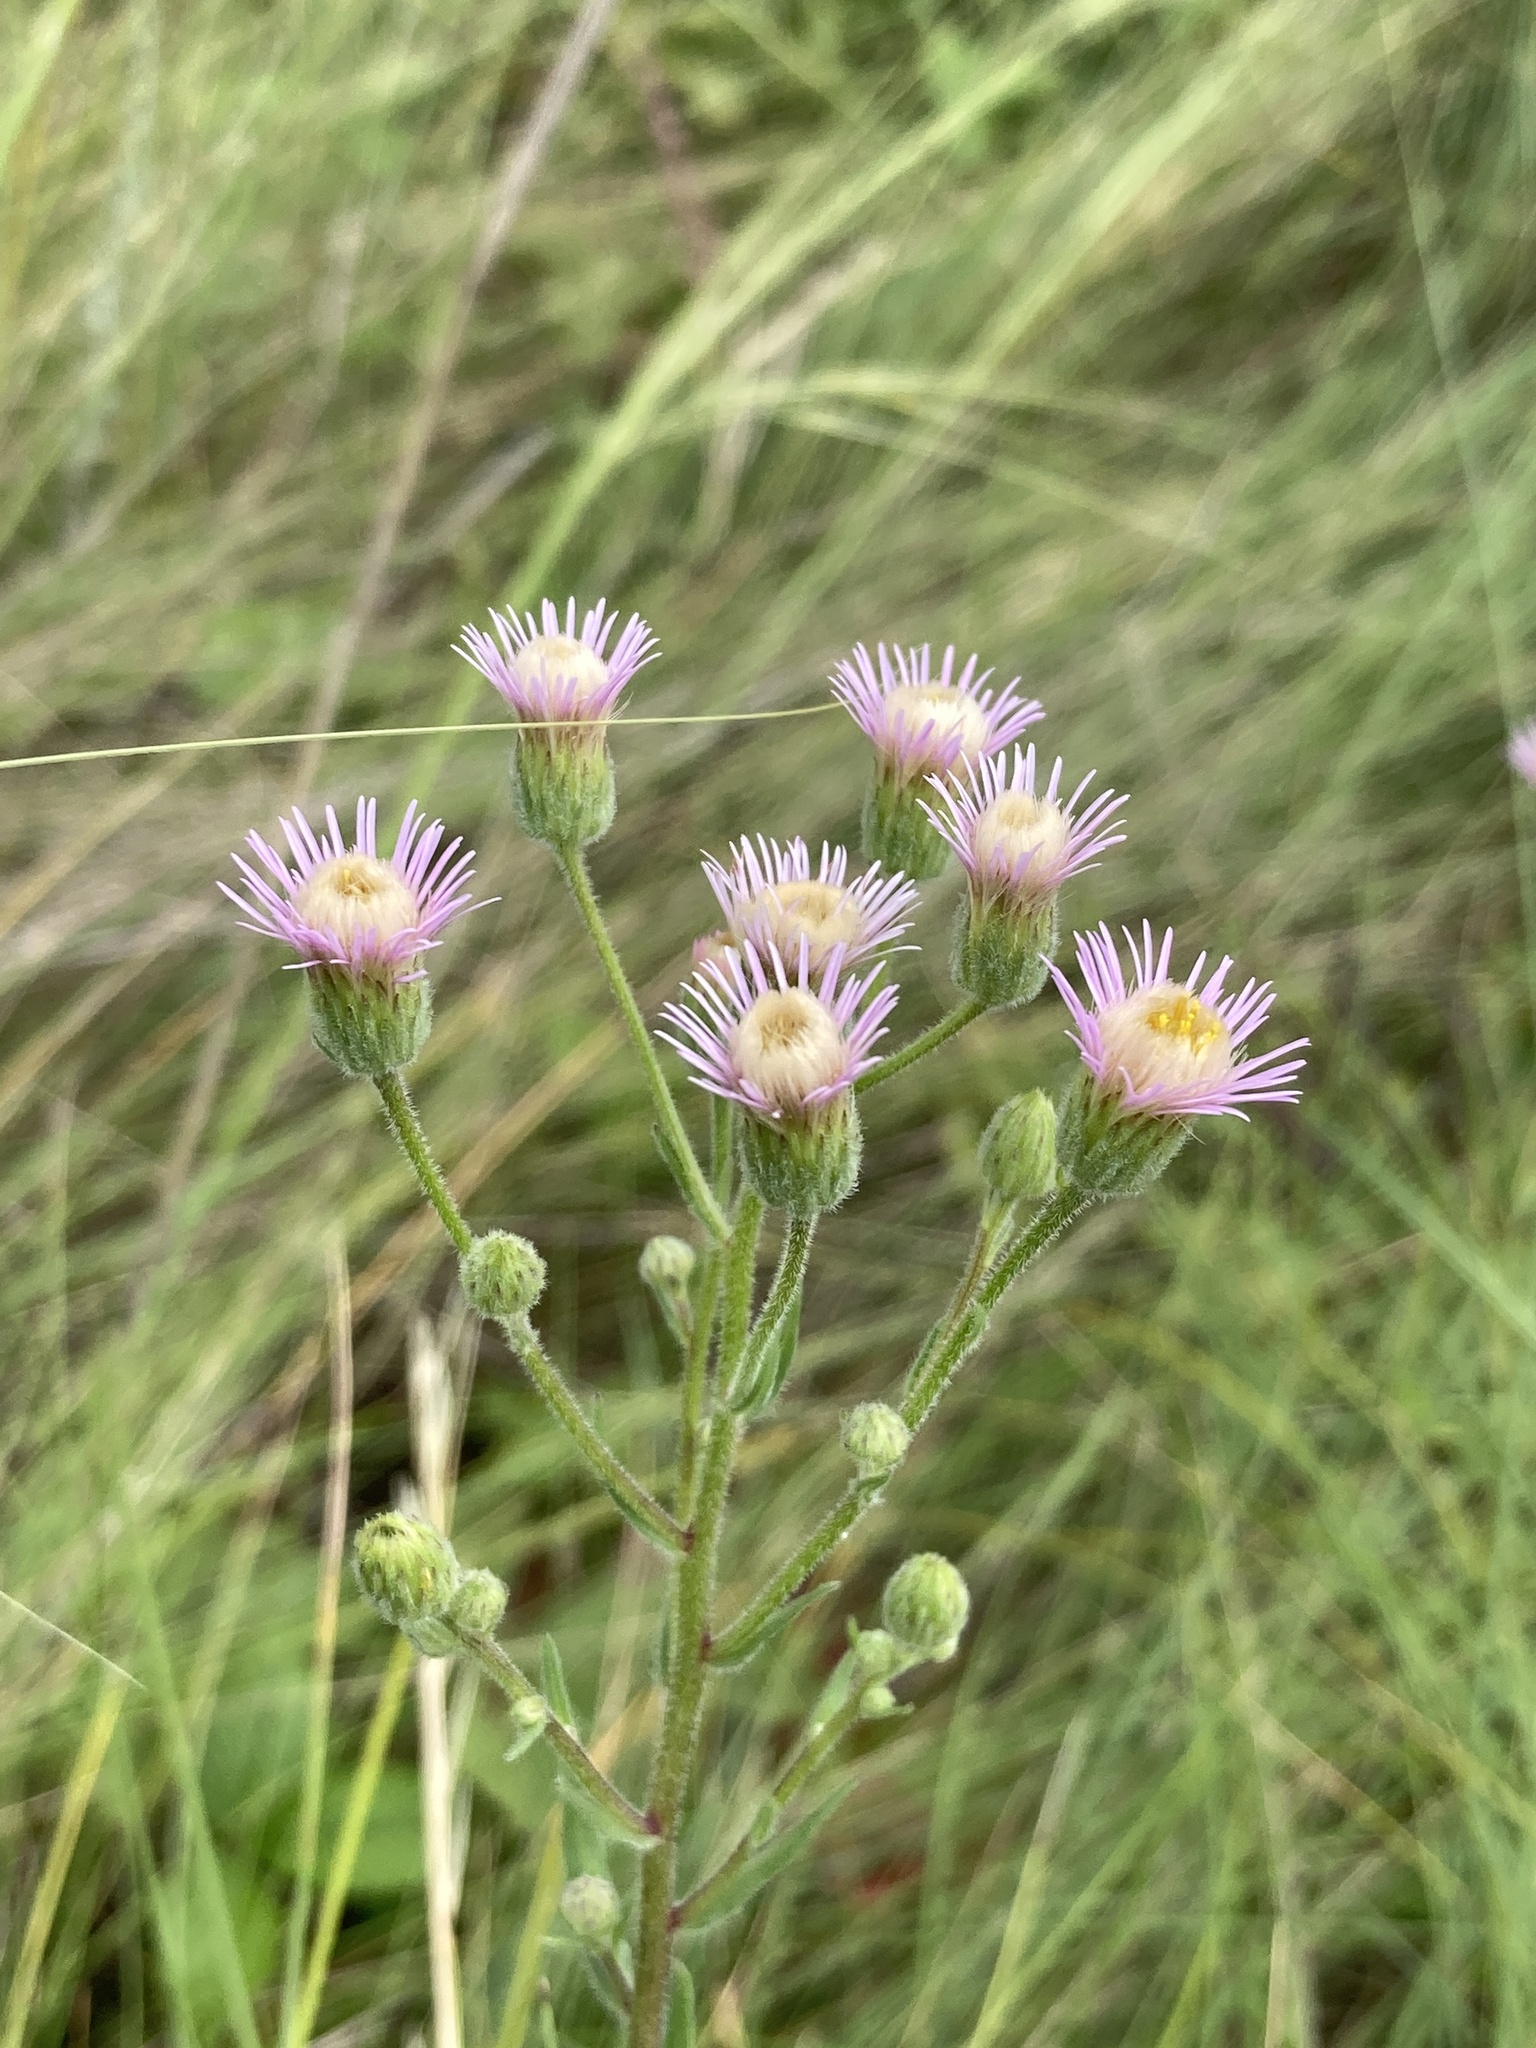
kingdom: Plantae
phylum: Tracheophyta
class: Magnoliopsida
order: Asterales
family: Asteraceae
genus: Erigeron
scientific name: Erigeron acris
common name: Blue fleabane
